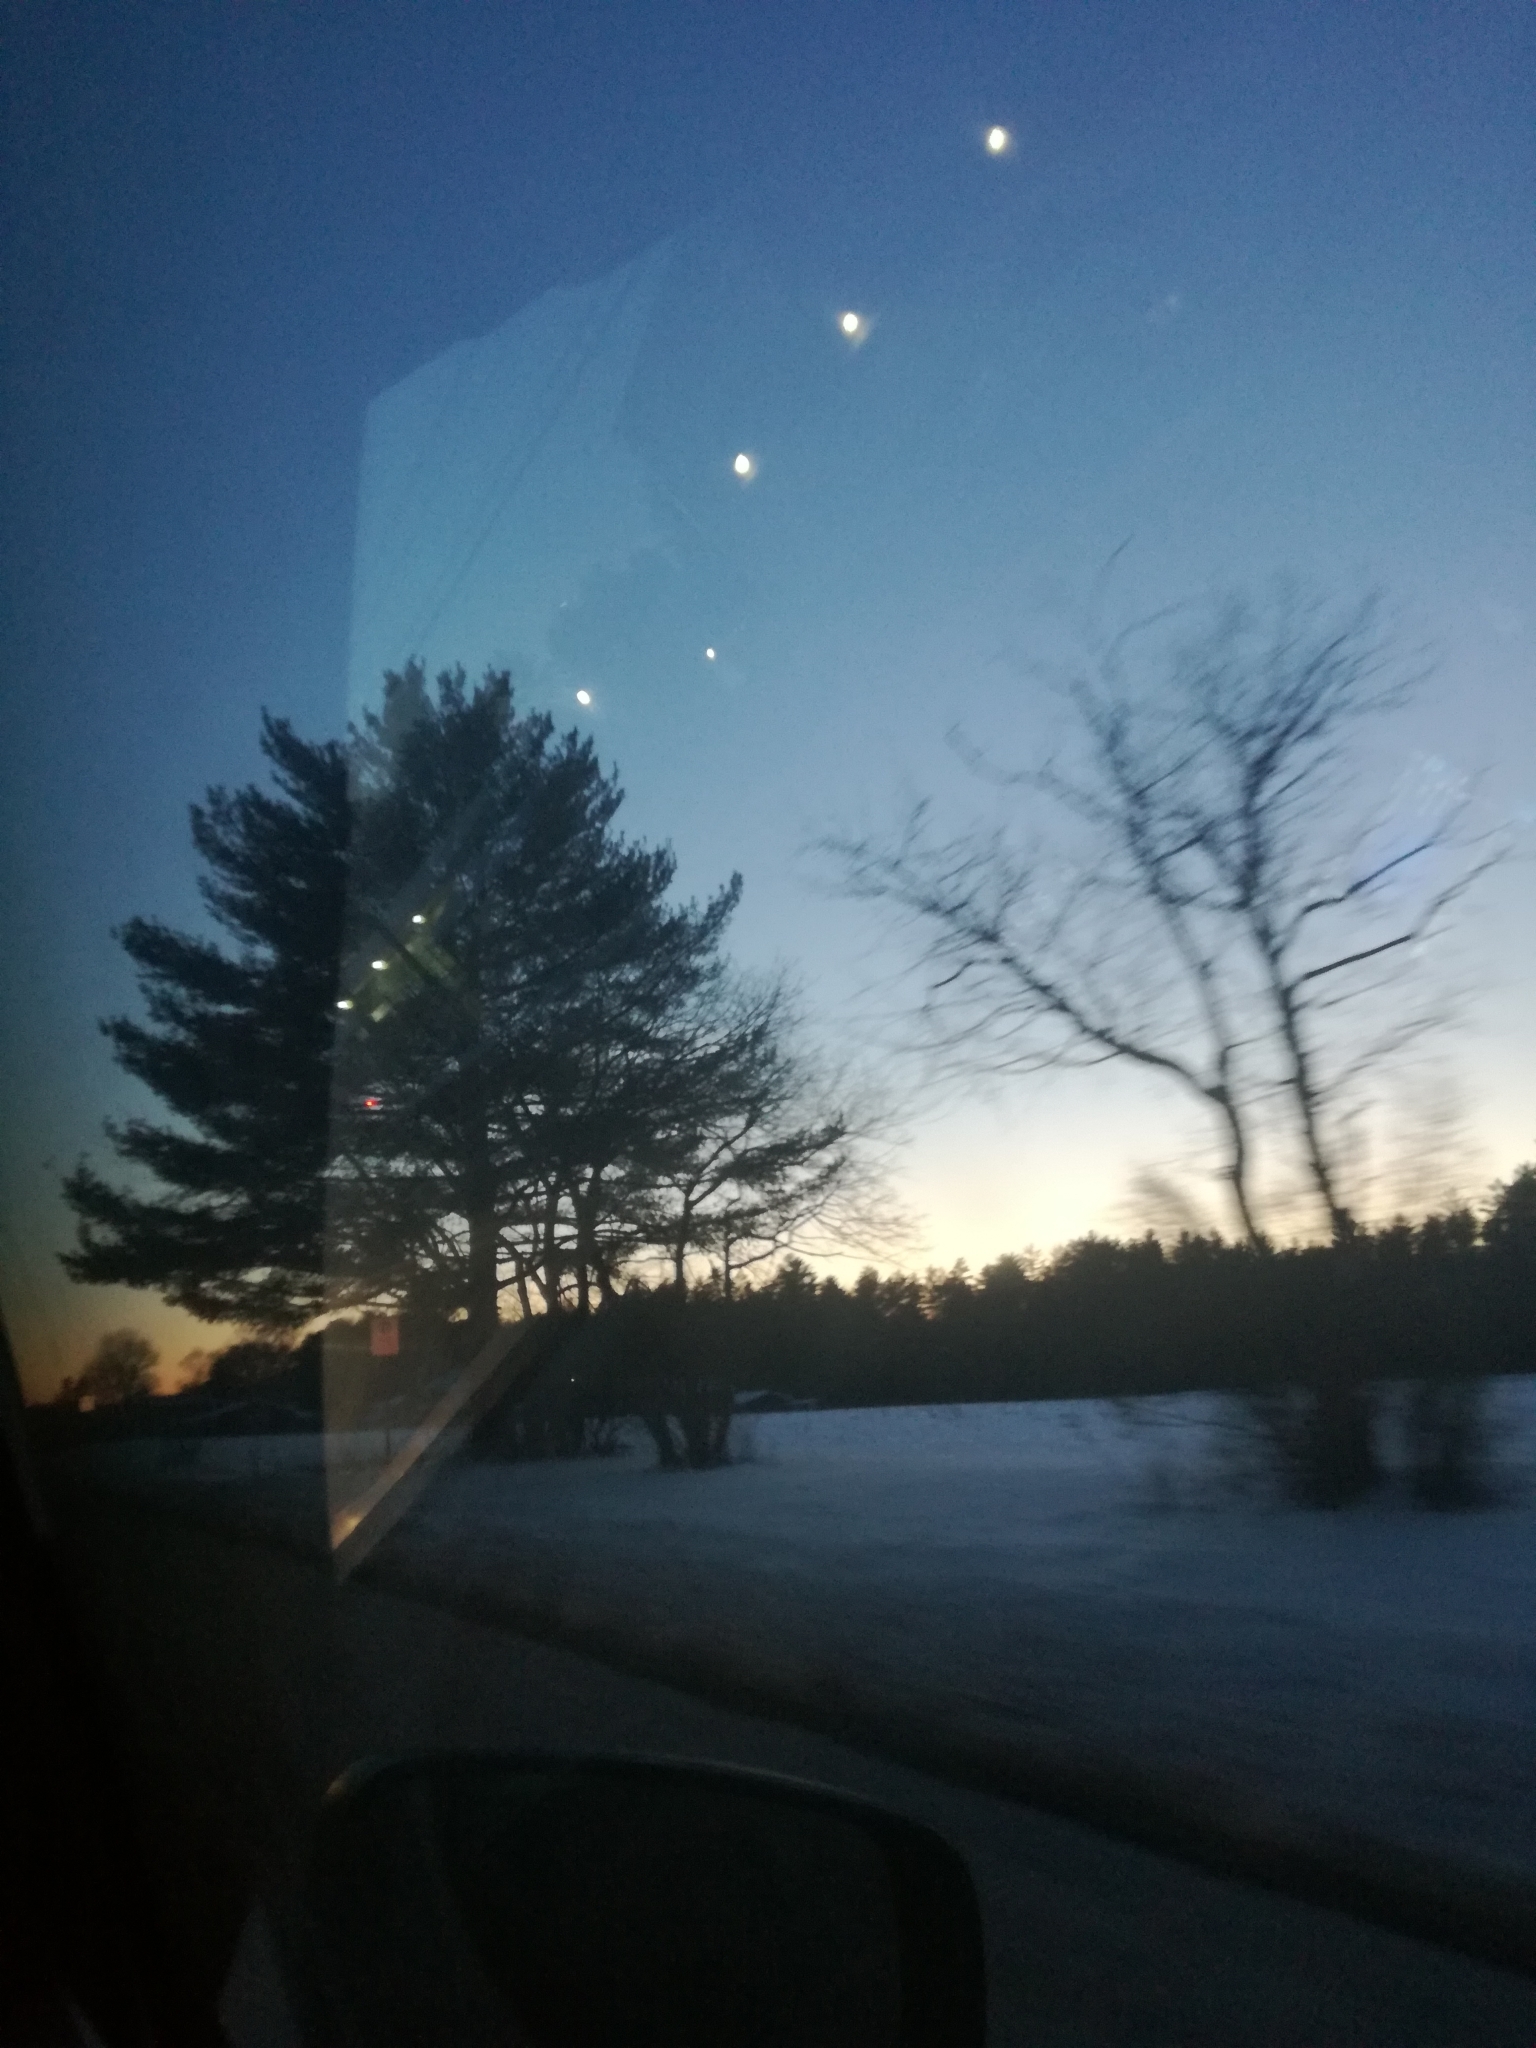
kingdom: Plantae
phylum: Tracheophyta
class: Pinopsida
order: Pinales
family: Pinaceae
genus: Pinus
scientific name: Pinus strobus
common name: Weymouth pine
